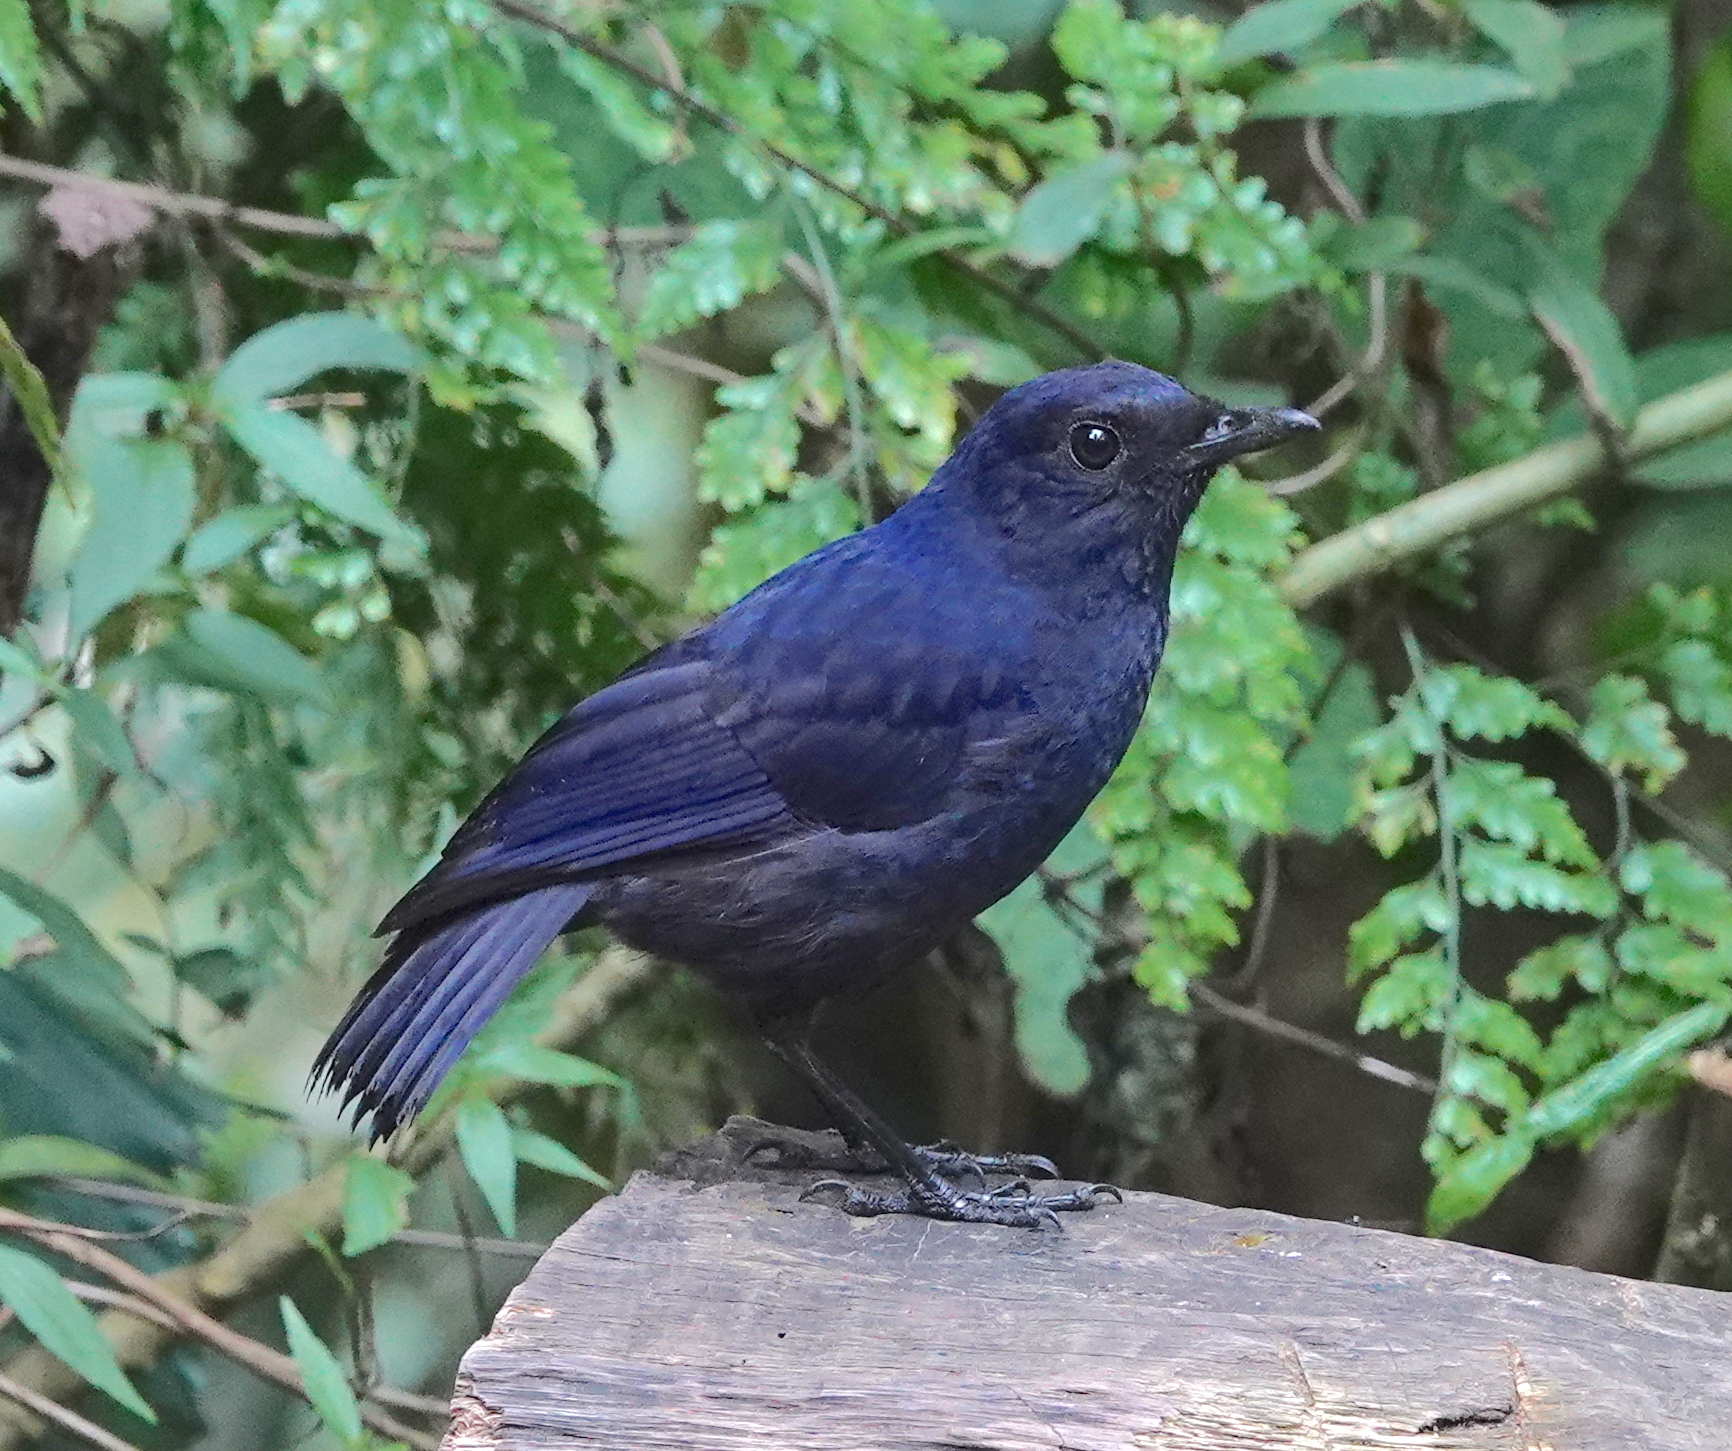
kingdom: Animalia
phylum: Chordata
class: Aves
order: Passeriformes
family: Muscicapidae
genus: Myophonus
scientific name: Myophonus glaucinus
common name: Javan whistling-thrush
